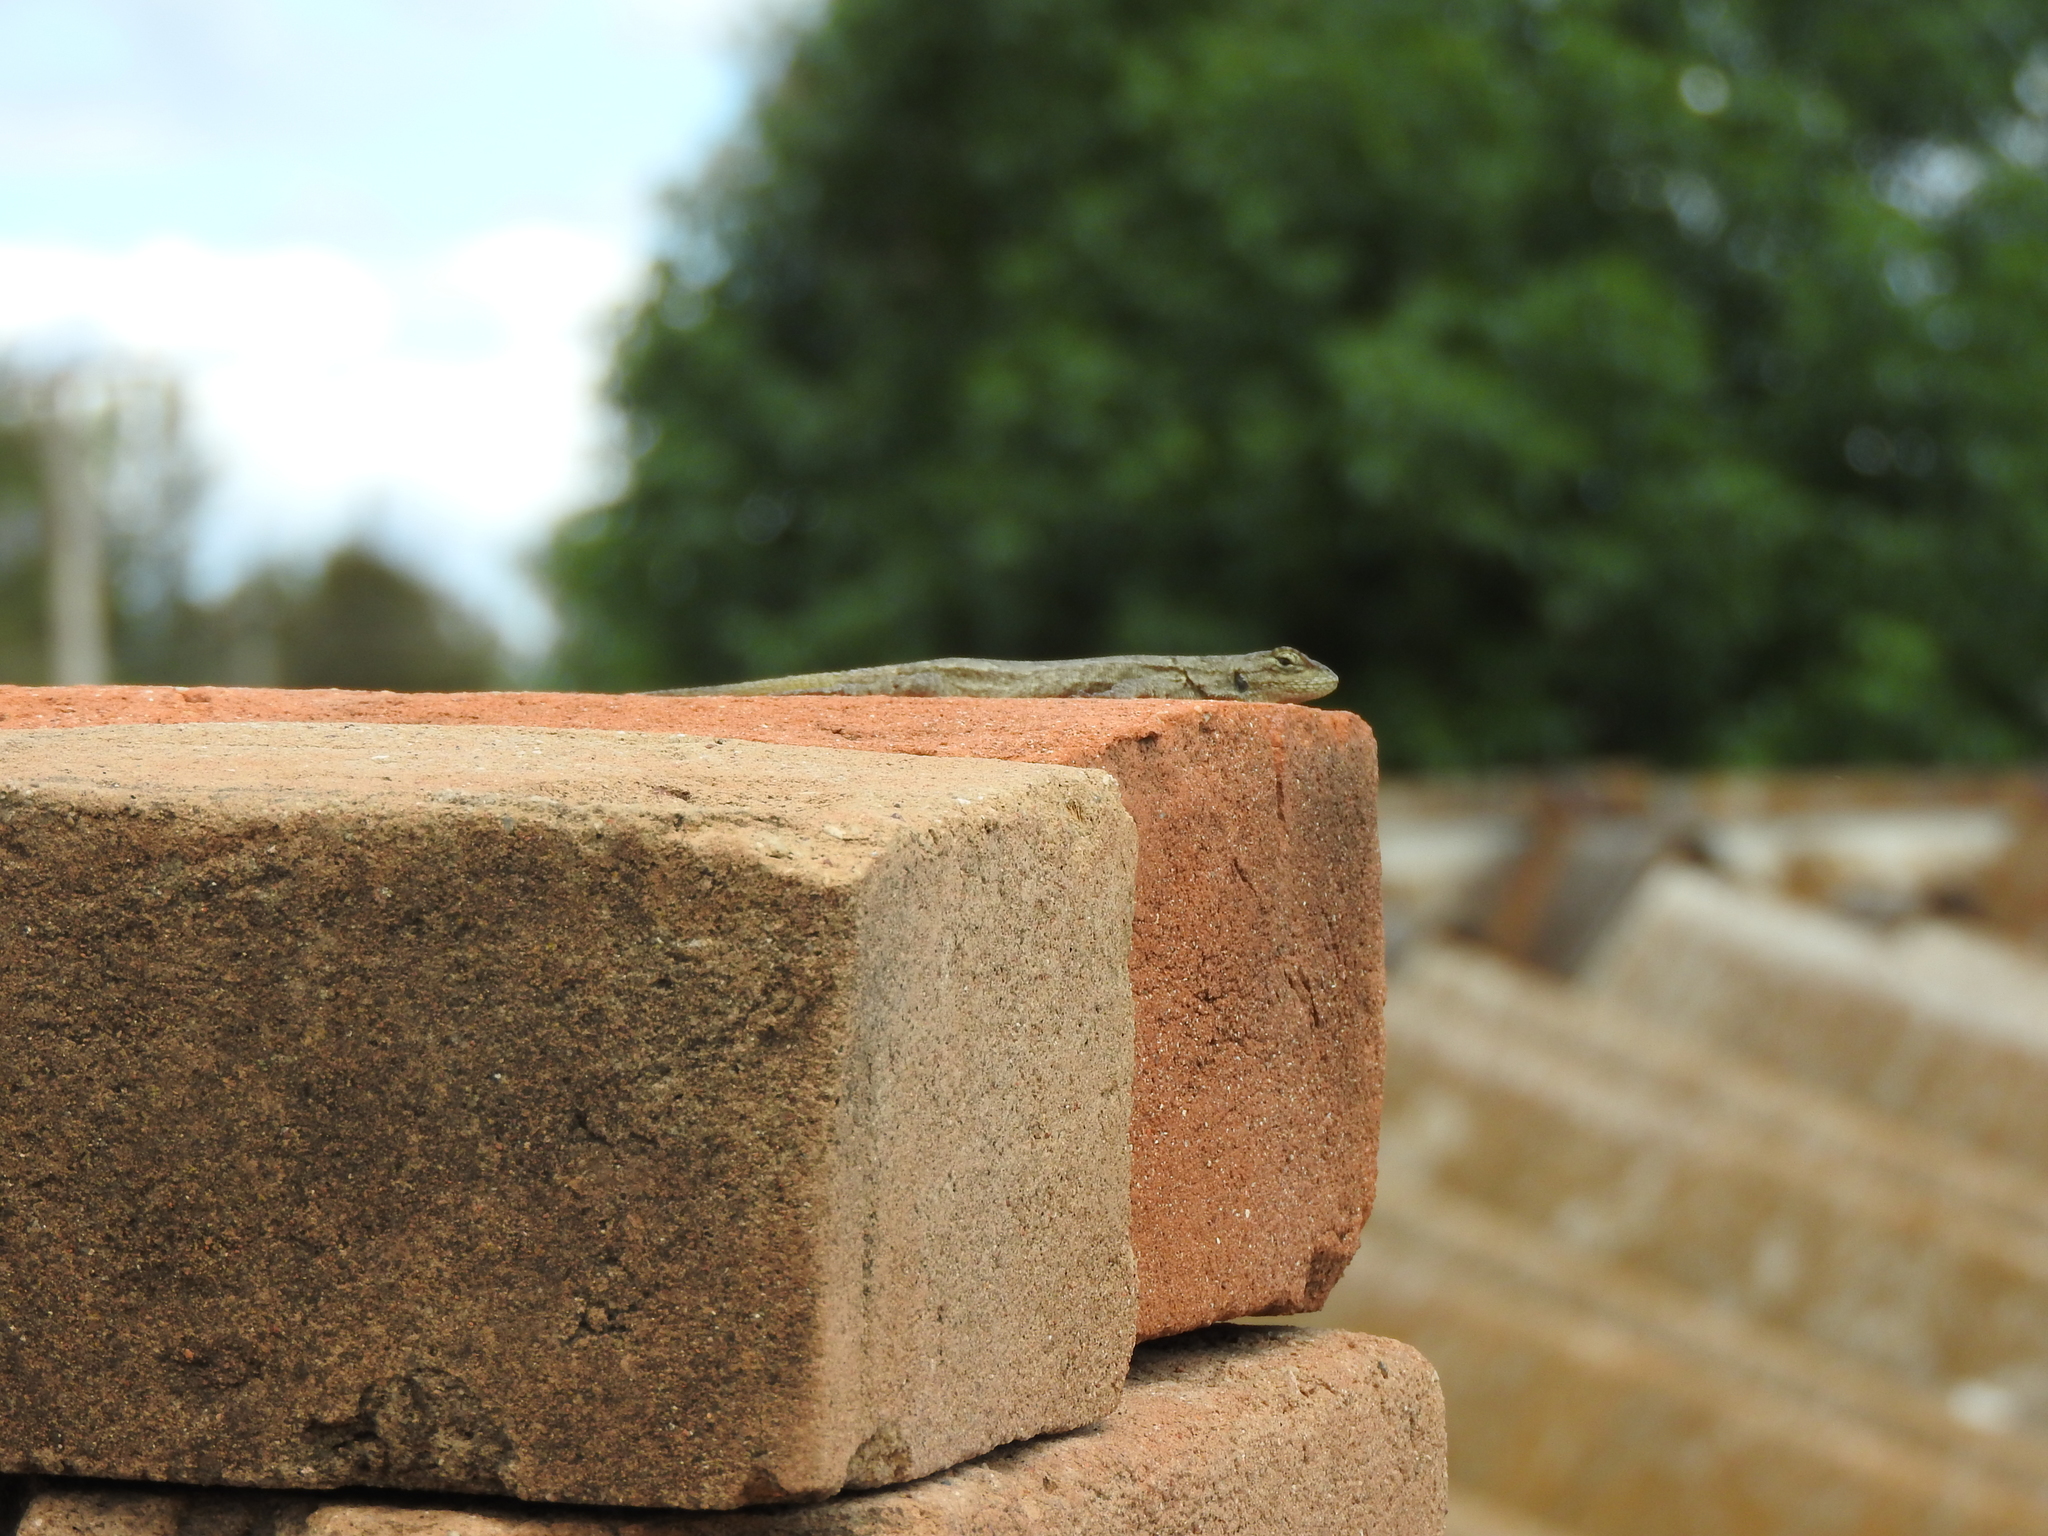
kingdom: Animalia
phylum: Chordata
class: Squamata
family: Phrynosomatidae
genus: Sceloporus
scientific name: Sceloporus grammicus
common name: Mesquite lizard
